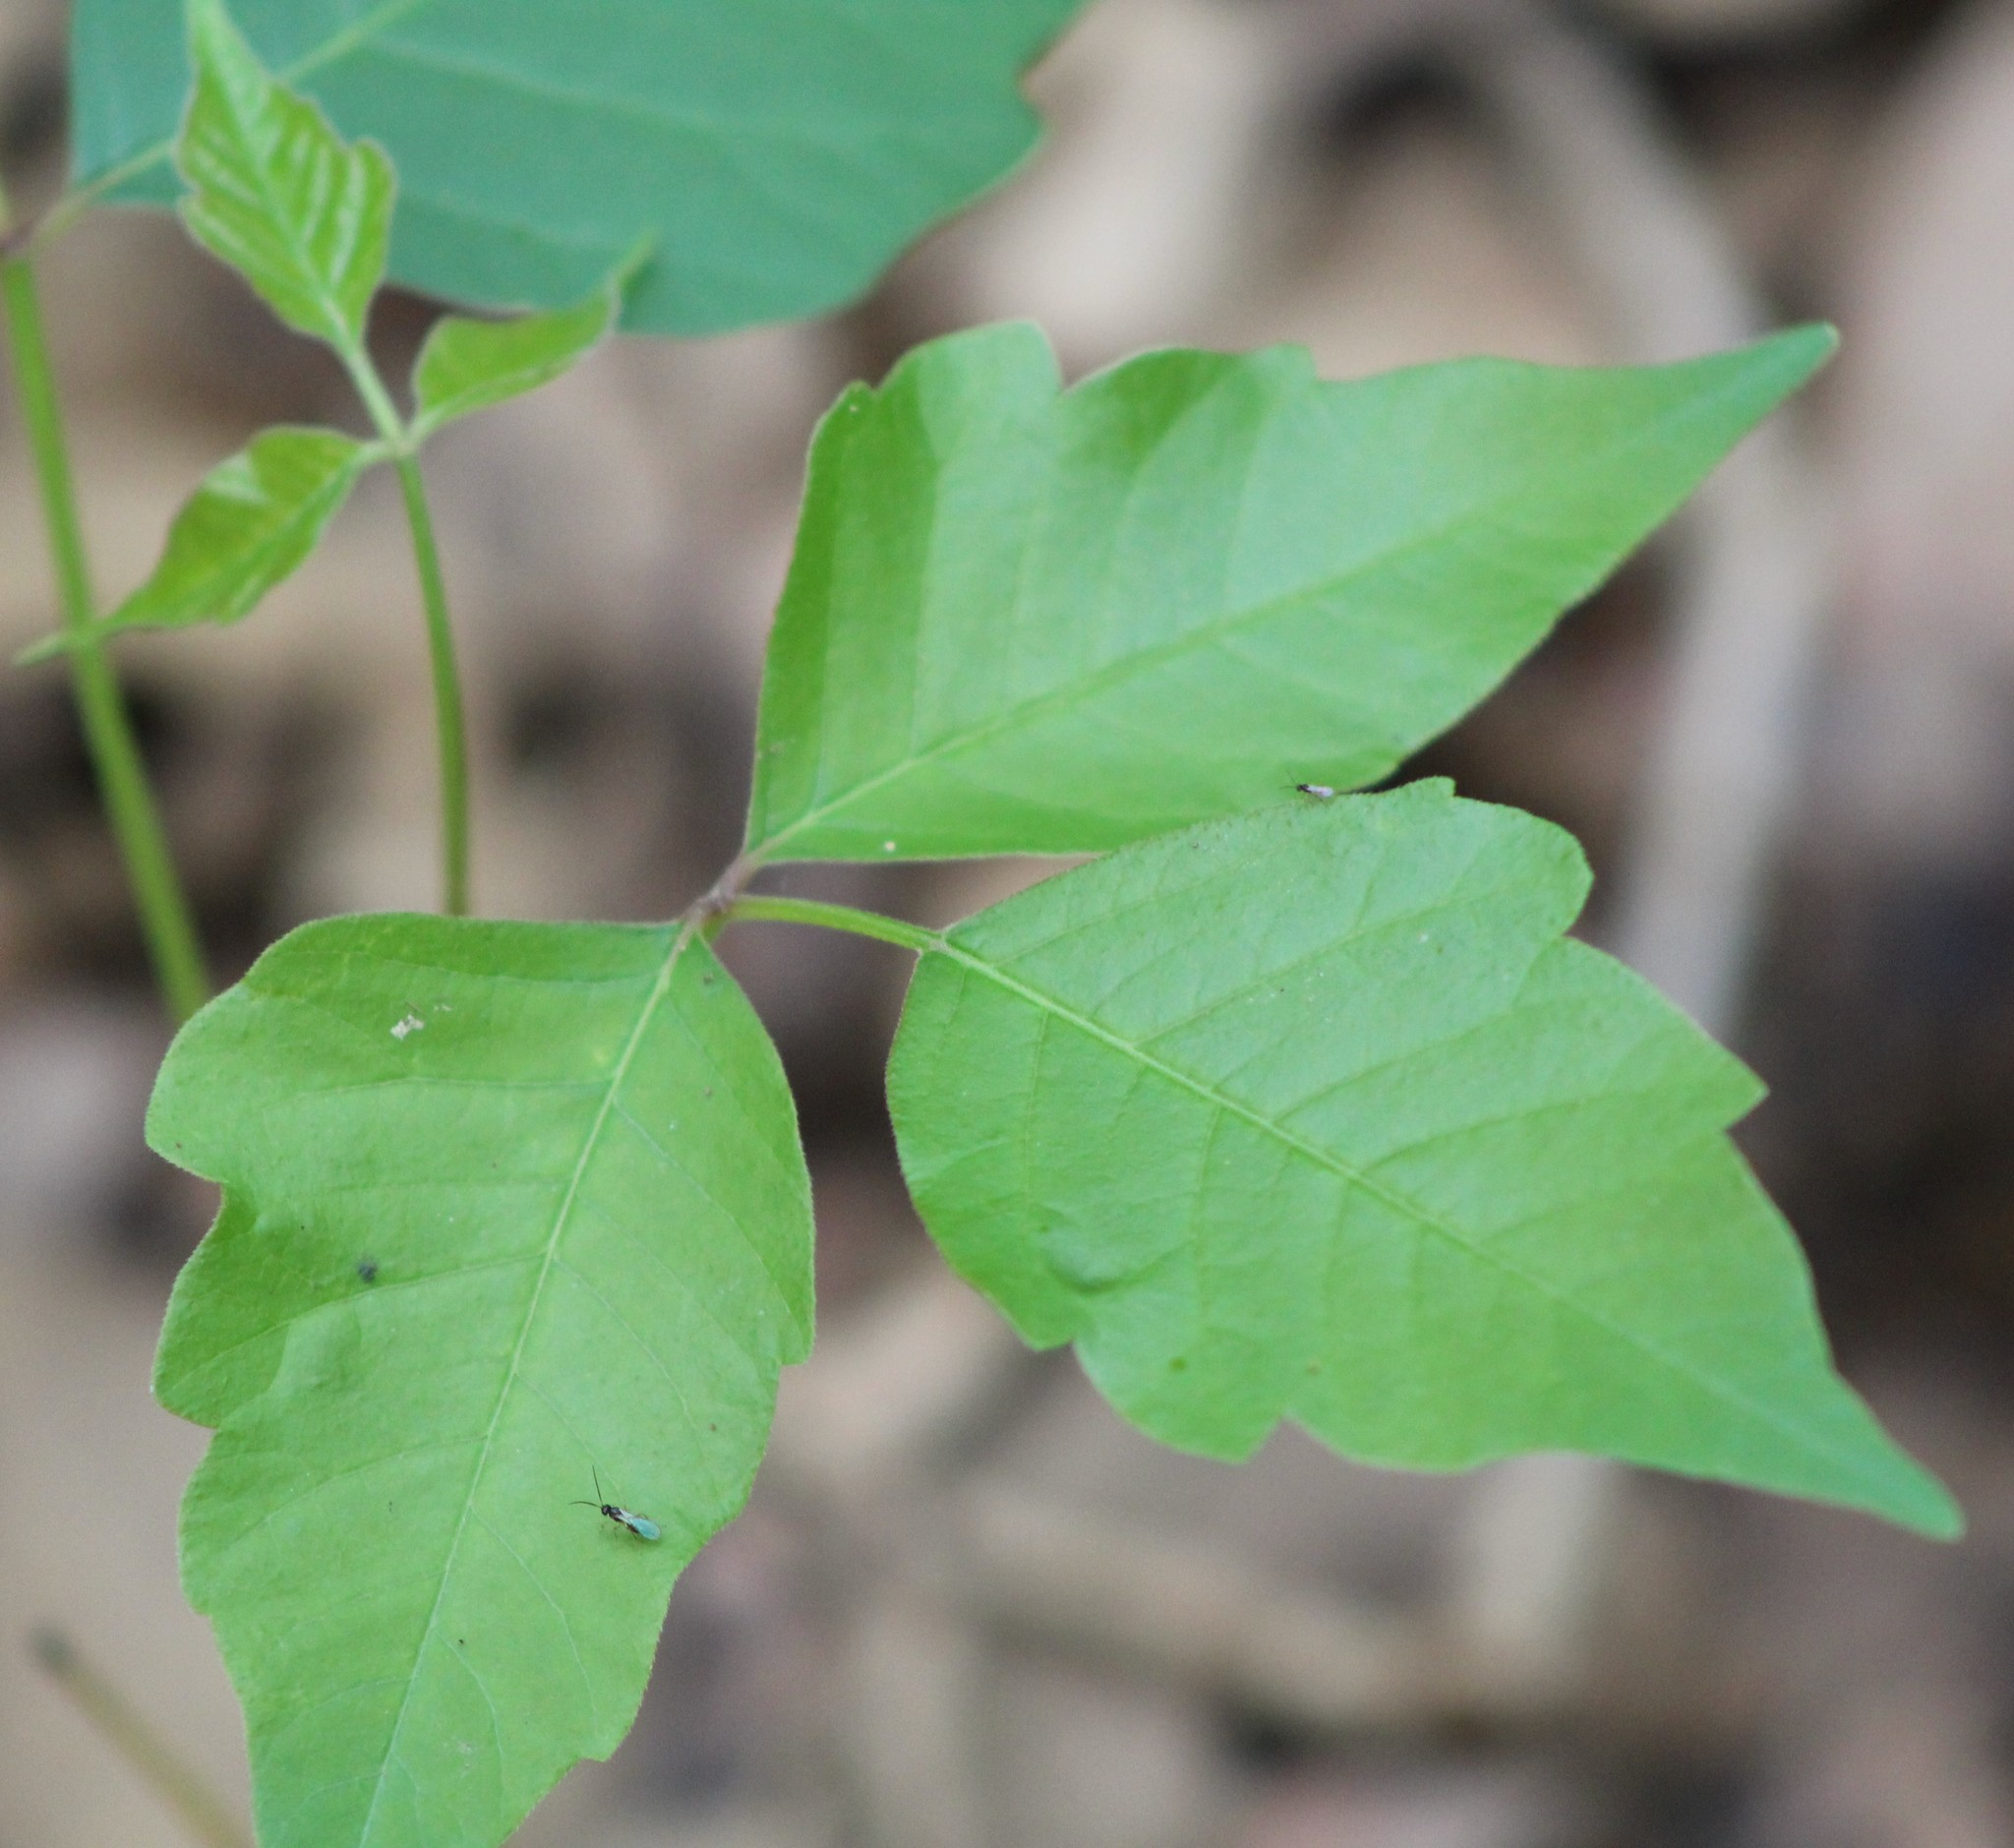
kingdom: Plantae
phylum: Tracheophyta
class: Magnoliopsida
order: Sapindales
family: Anacardiaceae
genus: Toxicodendron
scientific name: Toxicodendron radicans
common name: Poison ivy
